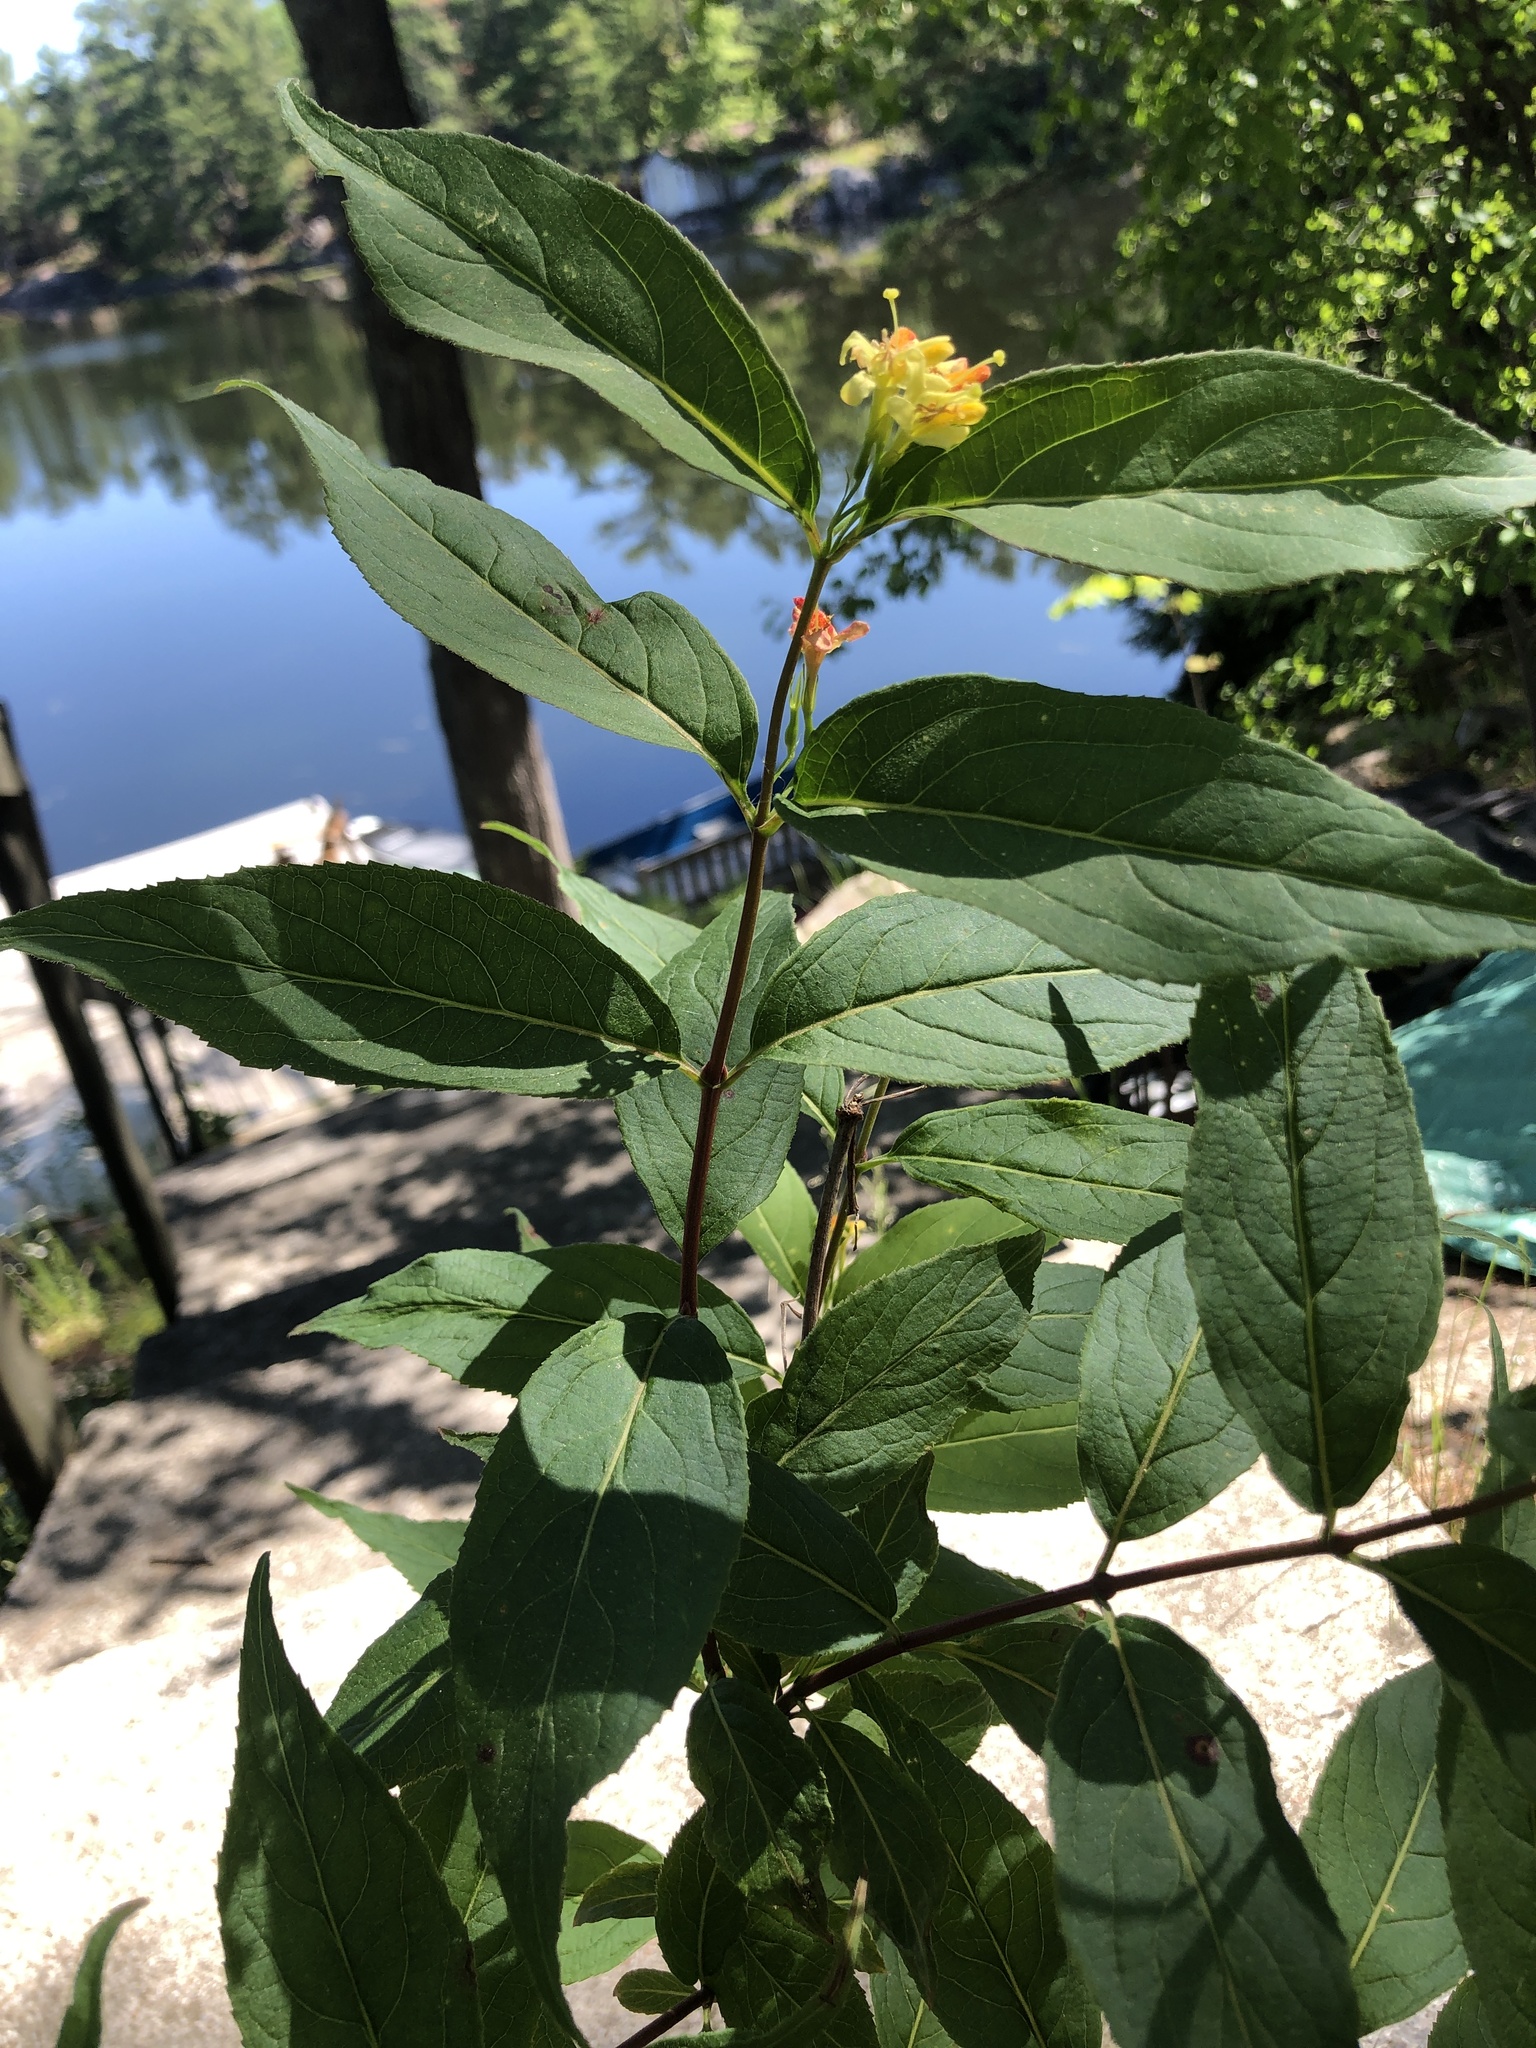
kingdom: Plantae
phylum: Tracheophyta
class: Magnoliopsida
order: Dipsacales
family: Caprifoliaceae
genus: Diervilla
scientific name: Diervilla lonicera
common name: Bush-honeysuckle
